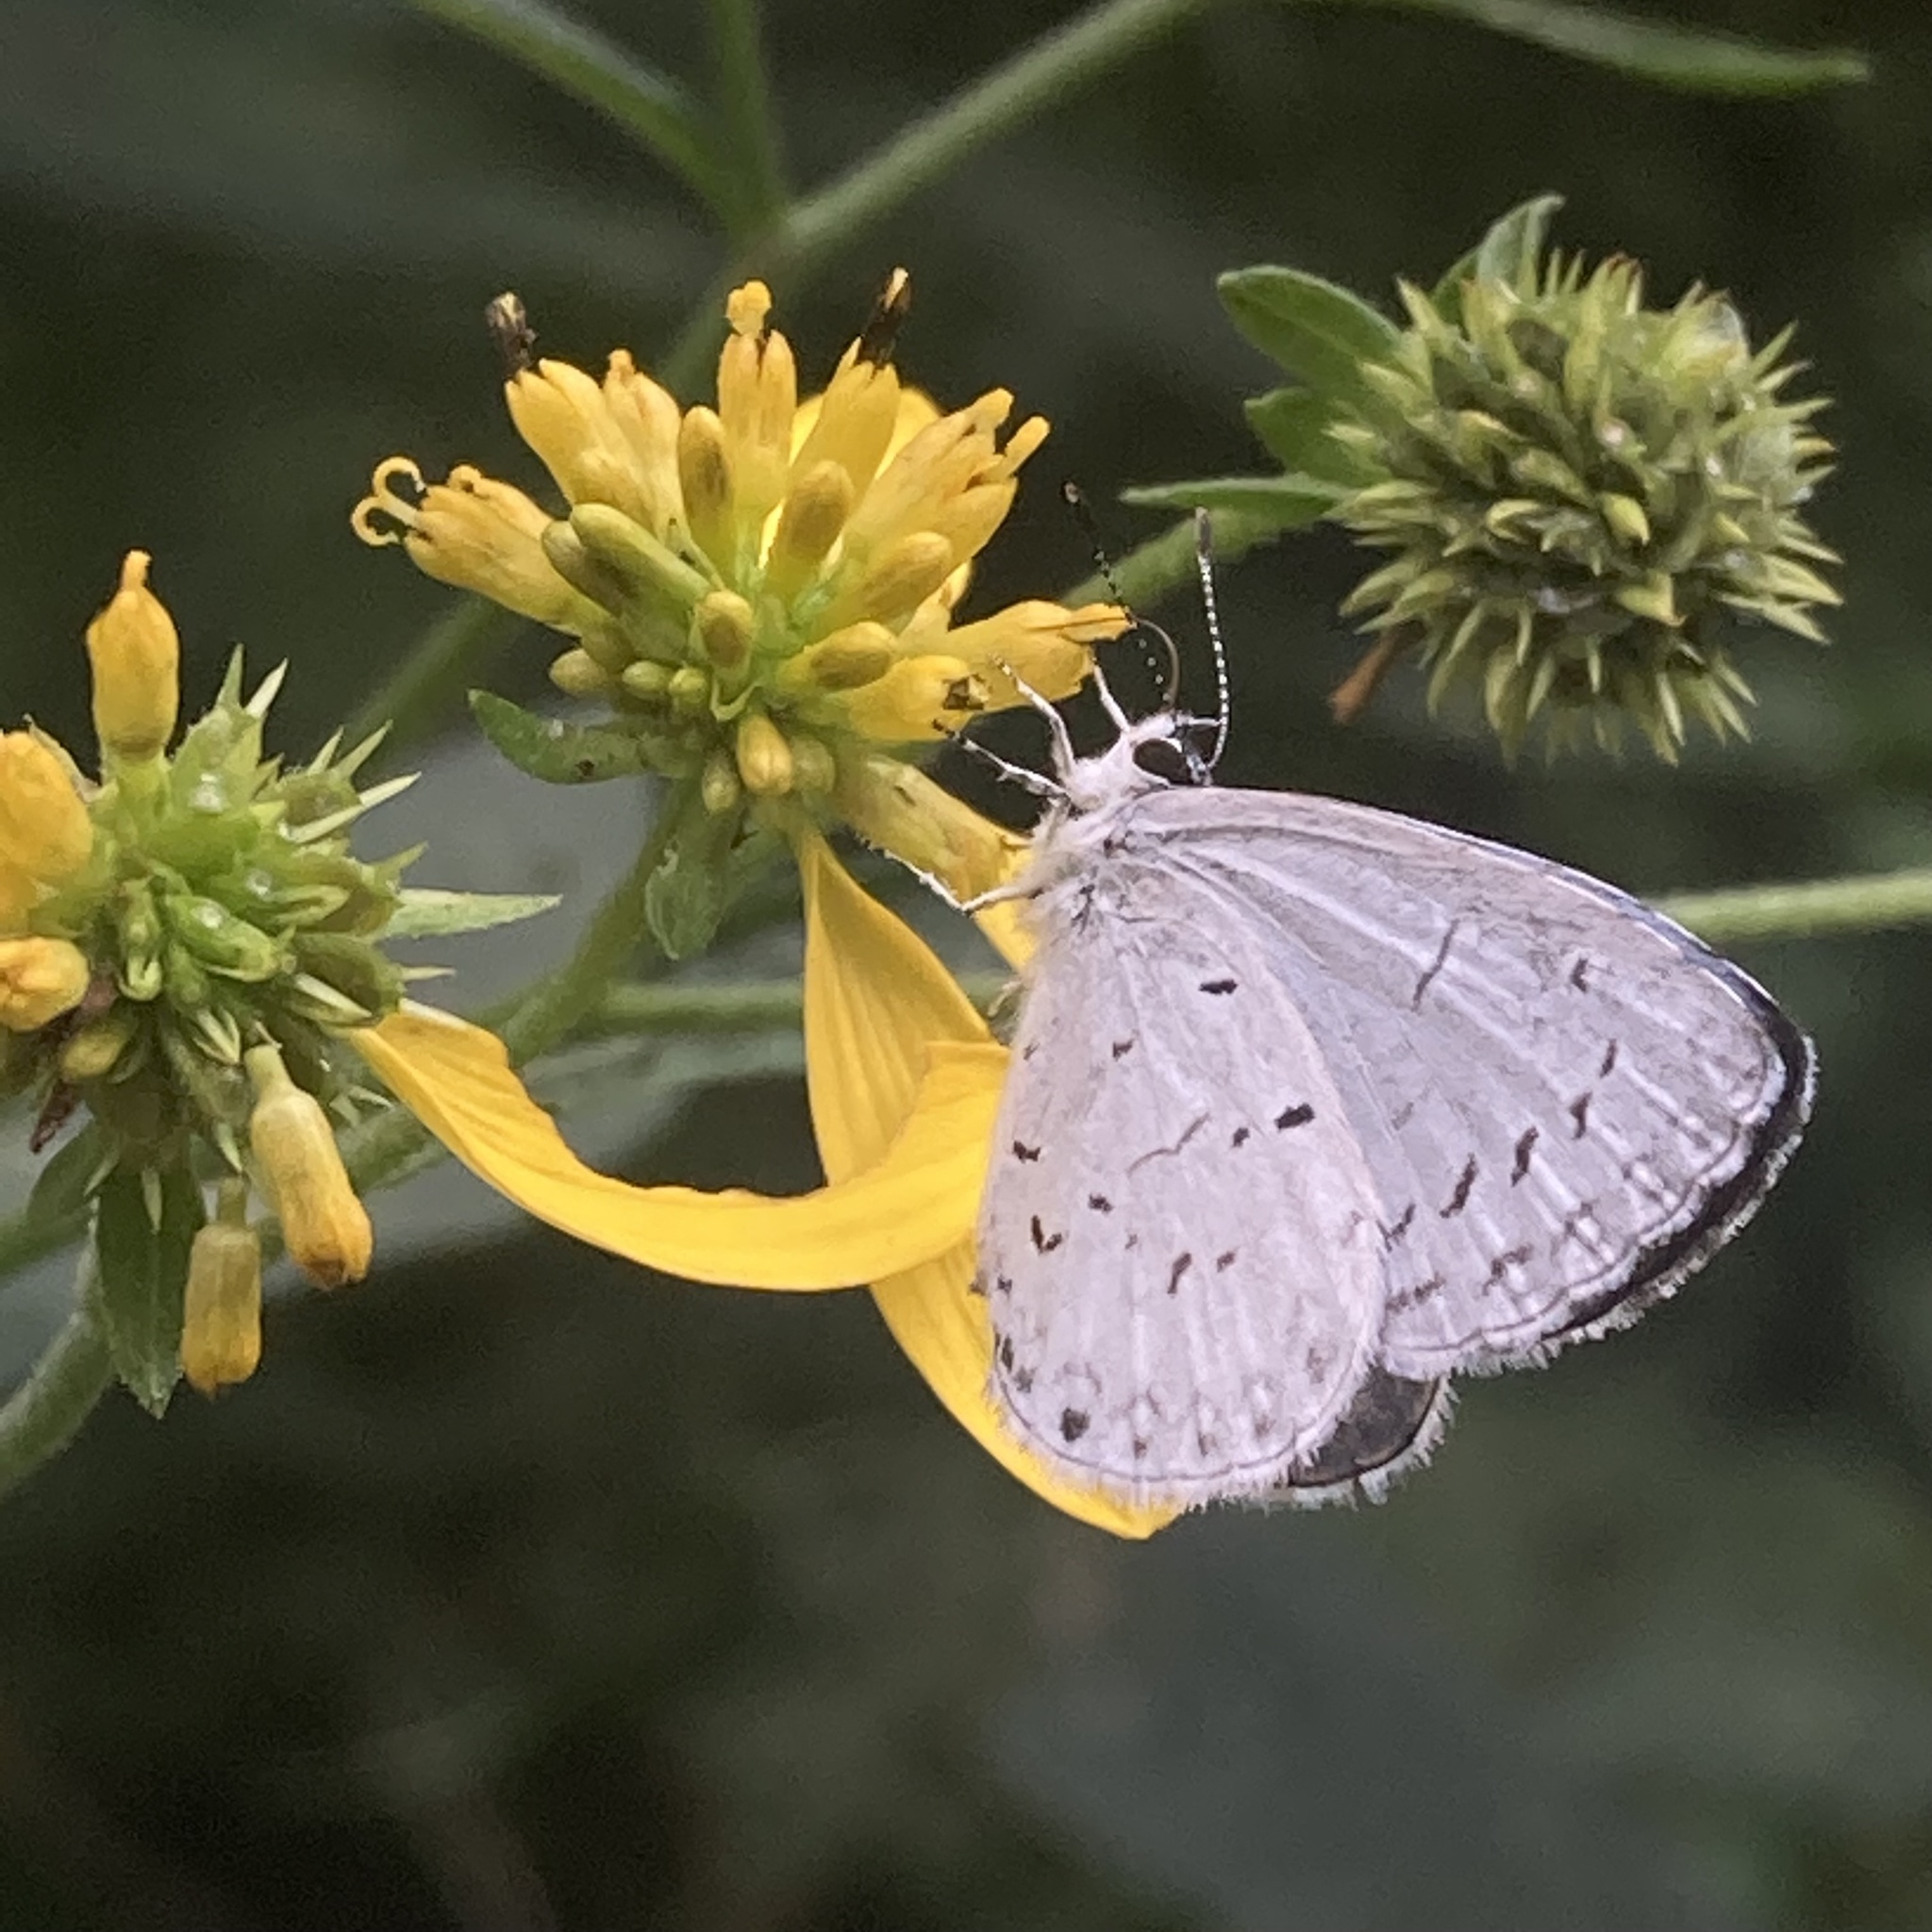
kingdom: Animalia
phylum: Arthropoda
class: Insecta
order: Lepidoptera
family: Lycaenidae
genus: Cyaniris
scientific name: Cyaniris neglecta
